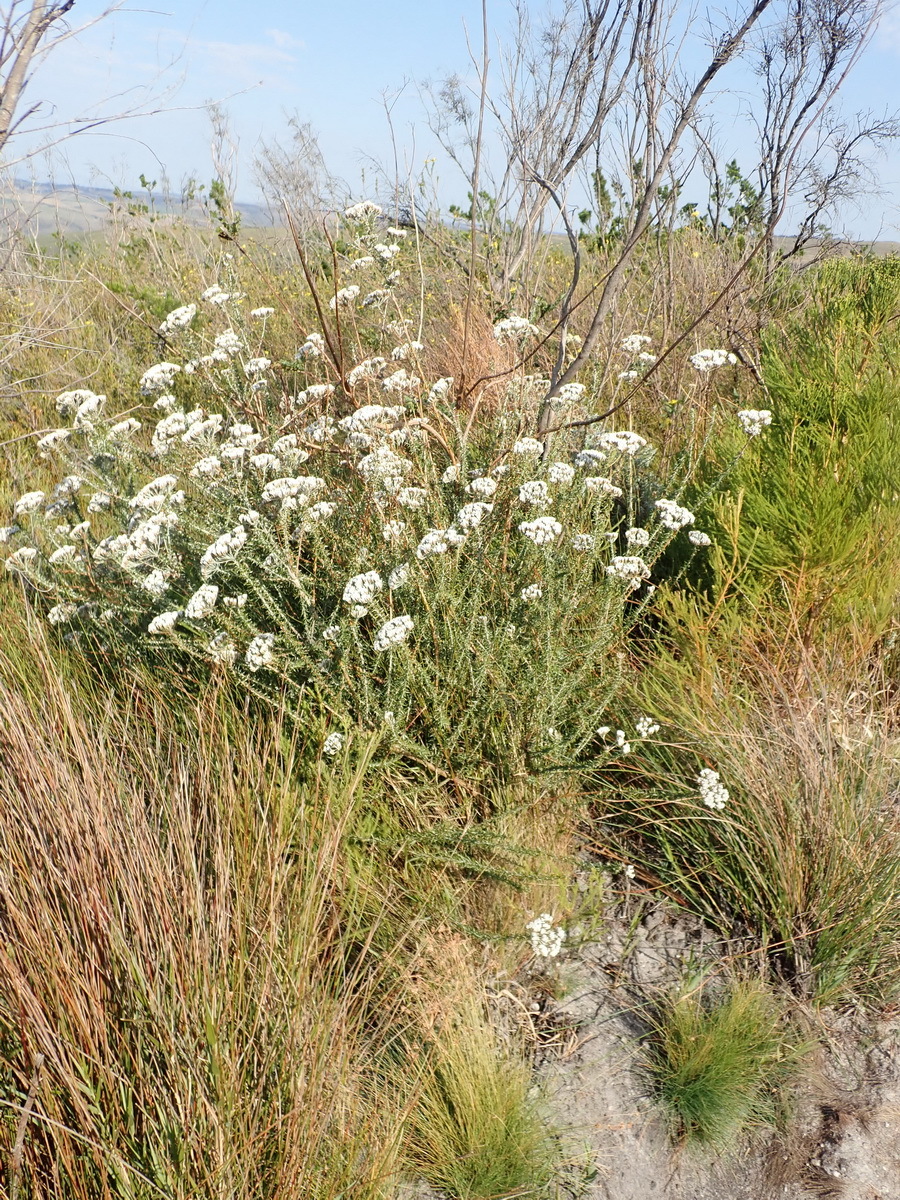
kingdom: Plantae
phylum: Tracheophyta
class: Magnoliopsida
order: Asterales
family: Asteraceae
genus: Metalasia
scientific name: Metalasia densa
